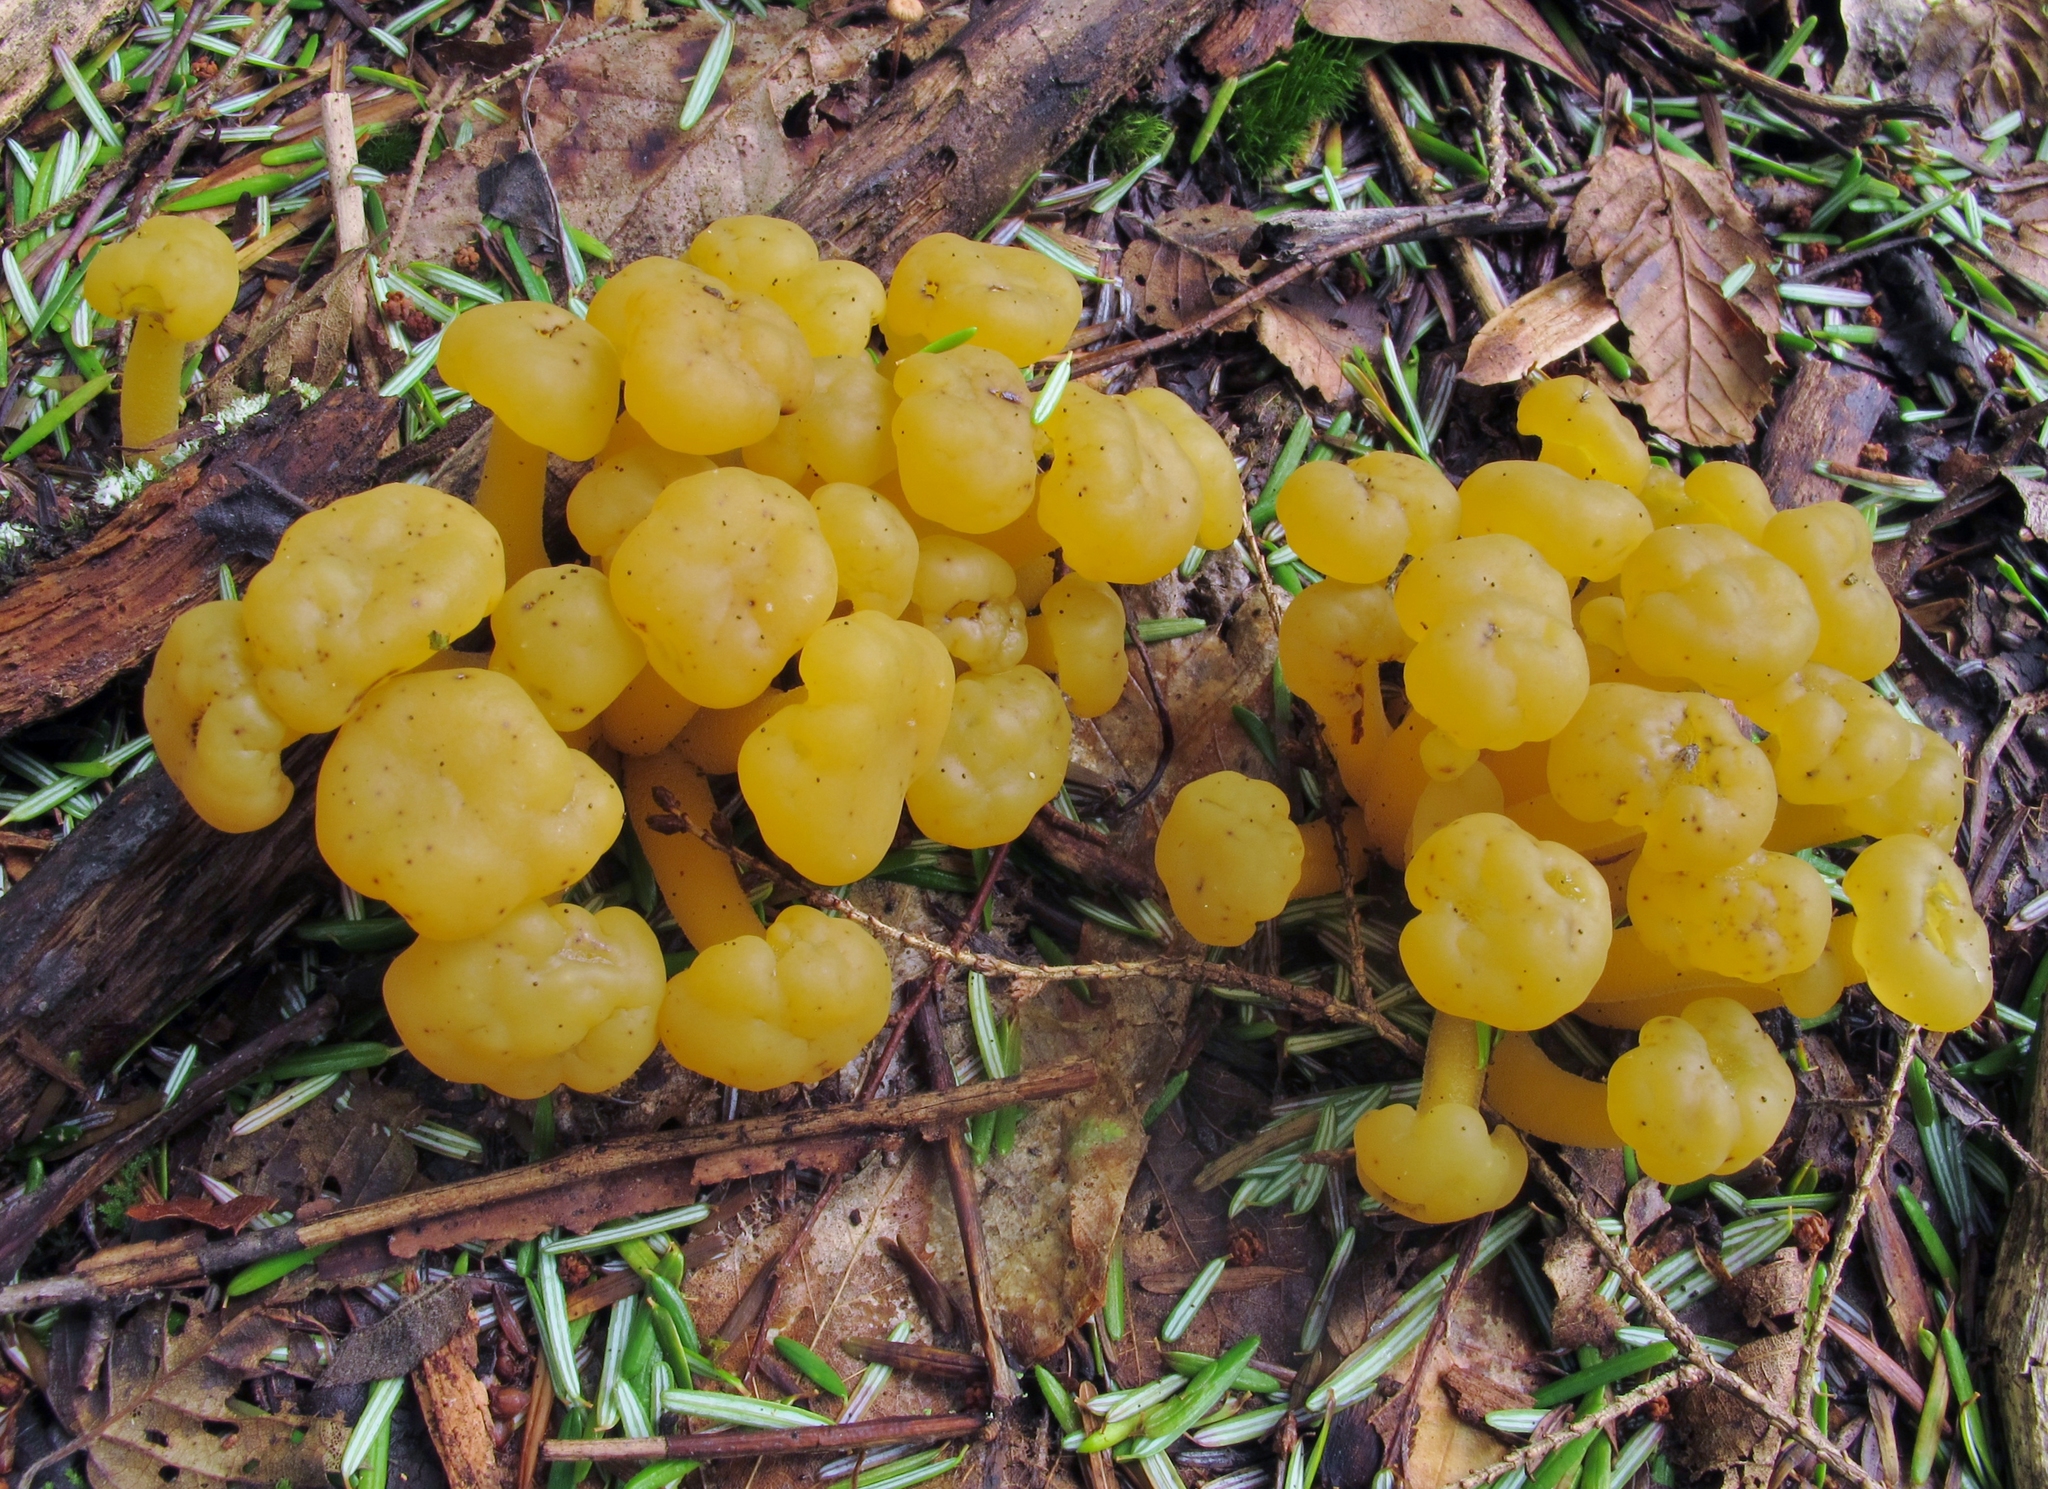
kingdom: Fungi
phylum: Ascomycota
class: Leotiomycetes
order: Leotiales
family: Leotiaceae
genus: Leotia
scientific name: Leotia lubrica
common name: Jellybaby
